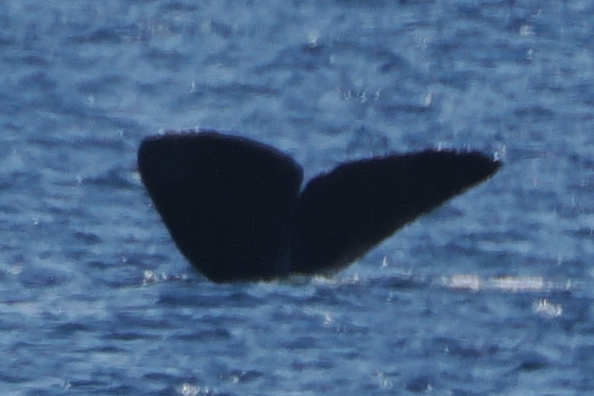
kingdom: Animalia
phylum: Chordata
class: Mammalia
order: Cetacea
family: Physeteridae
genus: Physeter
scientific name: Physeter macrocephalus
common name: Sperm whale
